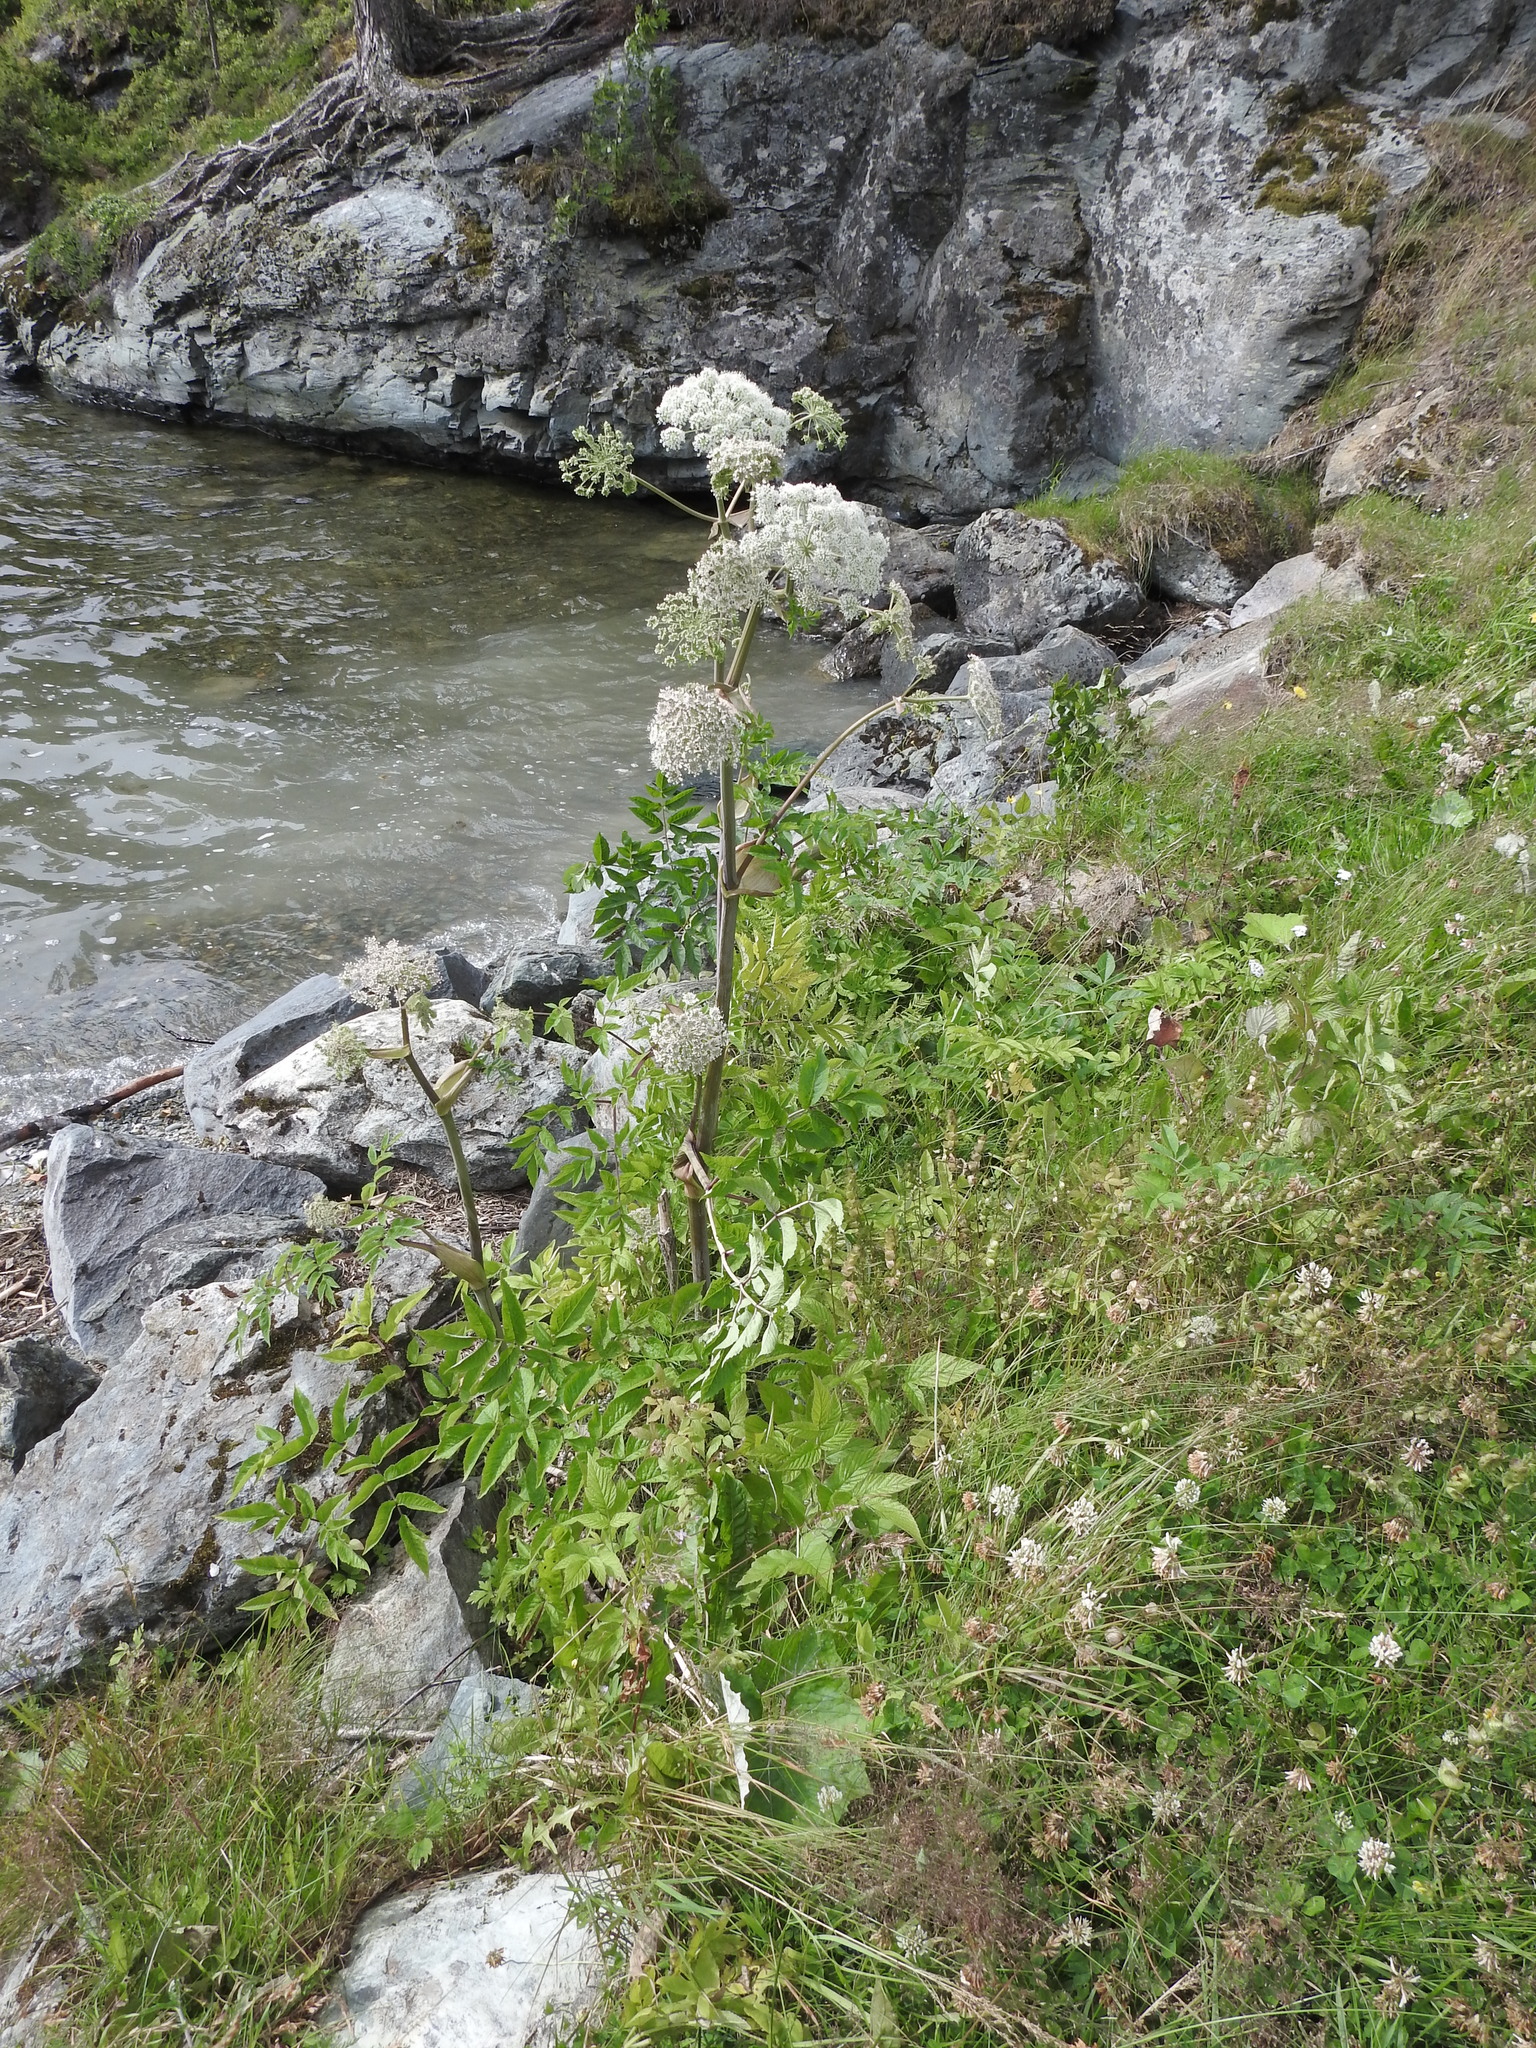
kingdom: Plantae
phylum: Tracheophyta
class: Magnoliopsida
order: Apiales
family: Apiaceae
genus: Angelica
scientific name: Angelica sylvestris
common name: Wild angelica
